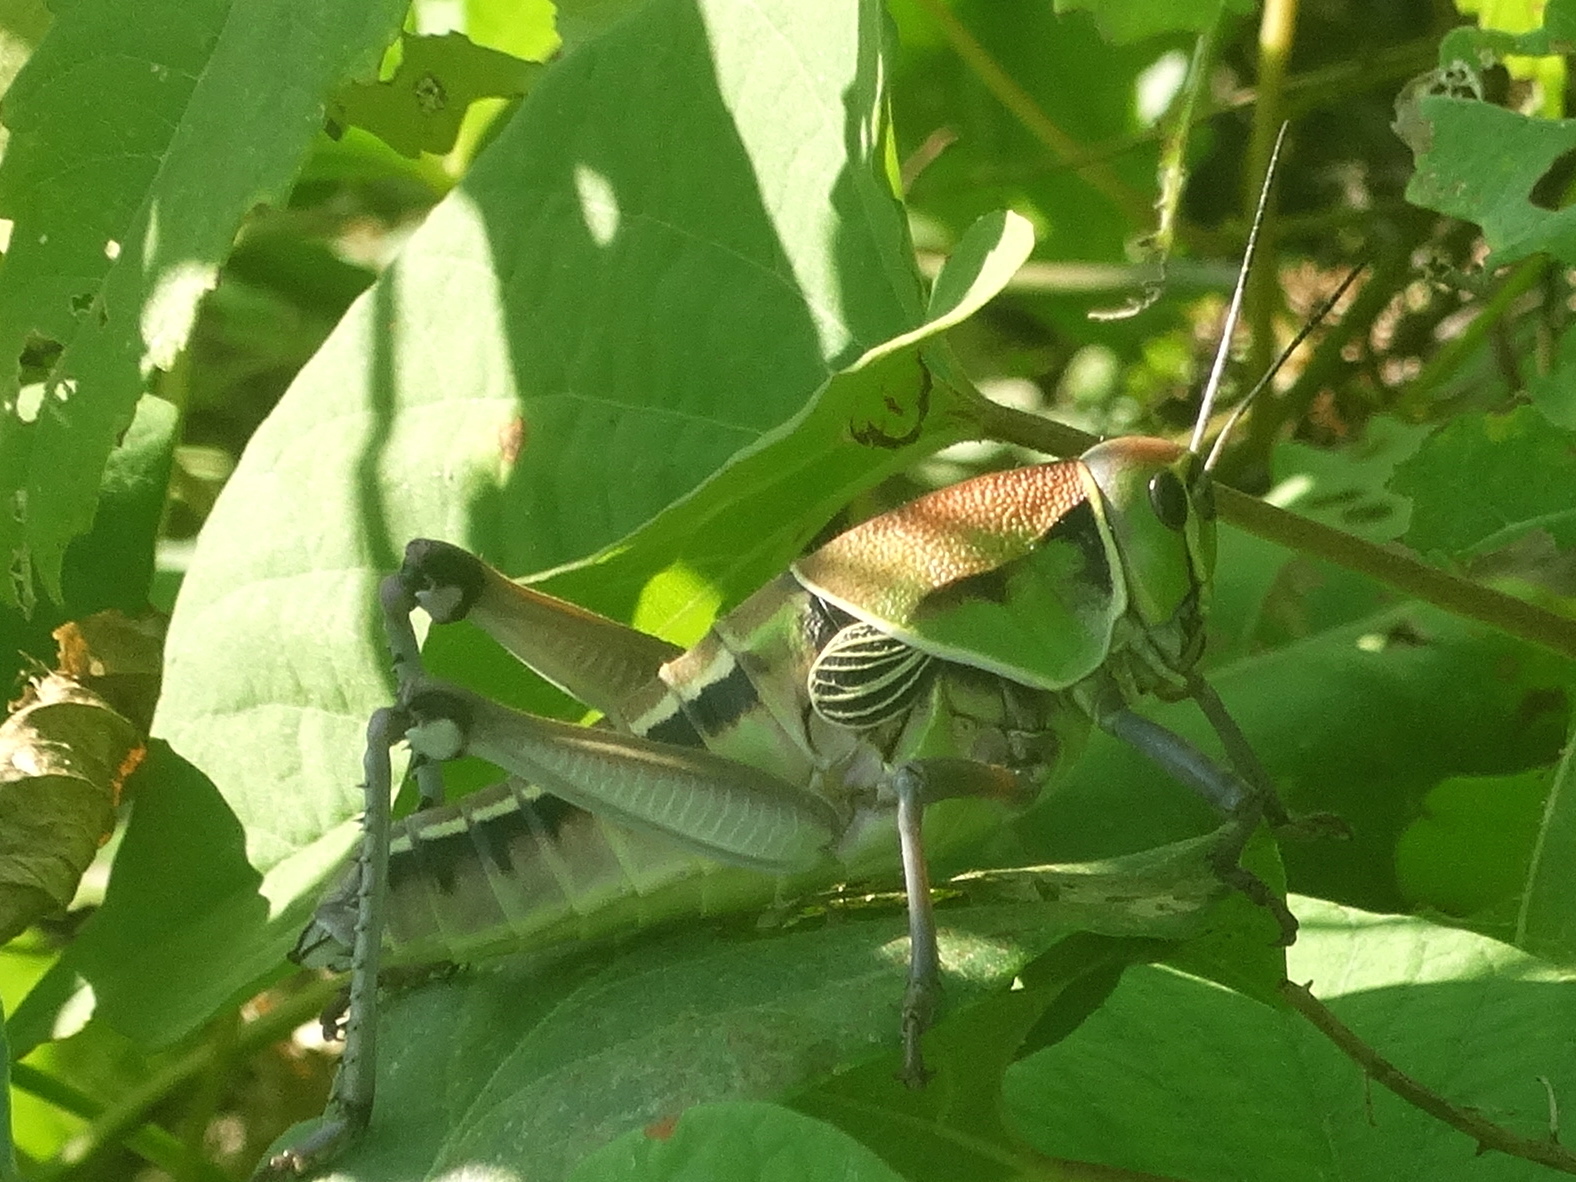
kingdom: Animalia
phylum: Arthropoda
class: Insecta
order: Orthoptera
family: Romaleidae
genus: Brachystola
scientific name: Brachystola behrensii
